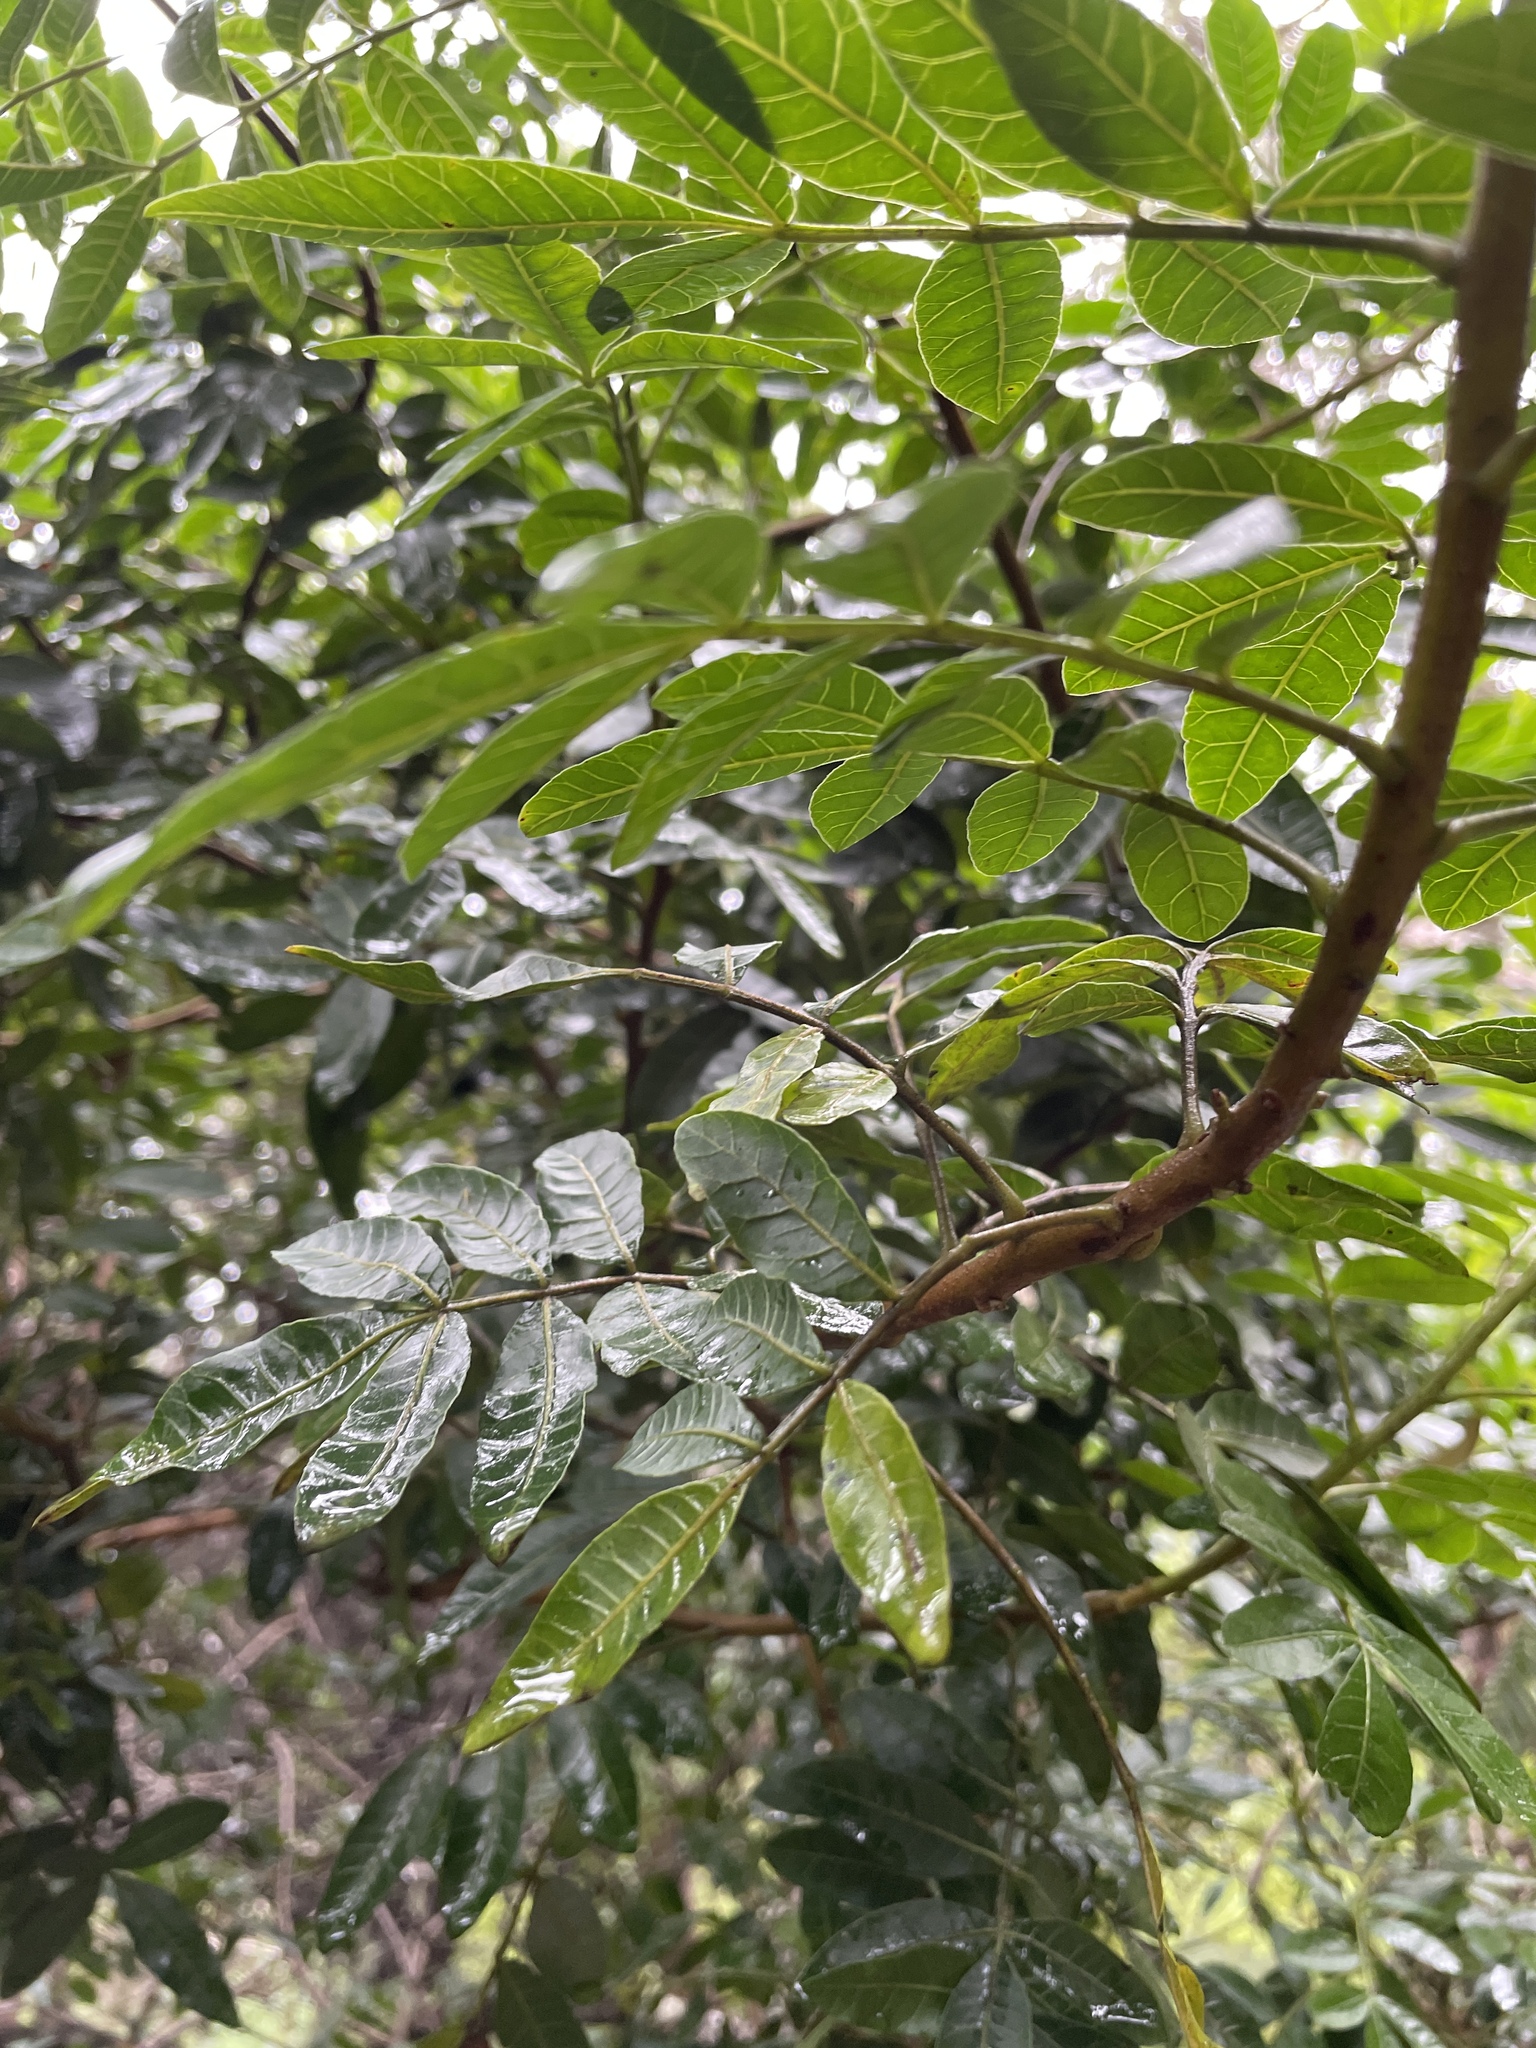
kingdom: Plantae
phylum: Tracheophyta
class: Magnoliopsida
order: Sapindales
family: Anacardiaceae
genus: Schinus
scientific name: Schinus terebinthifolia
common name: Brazilian peppertree
